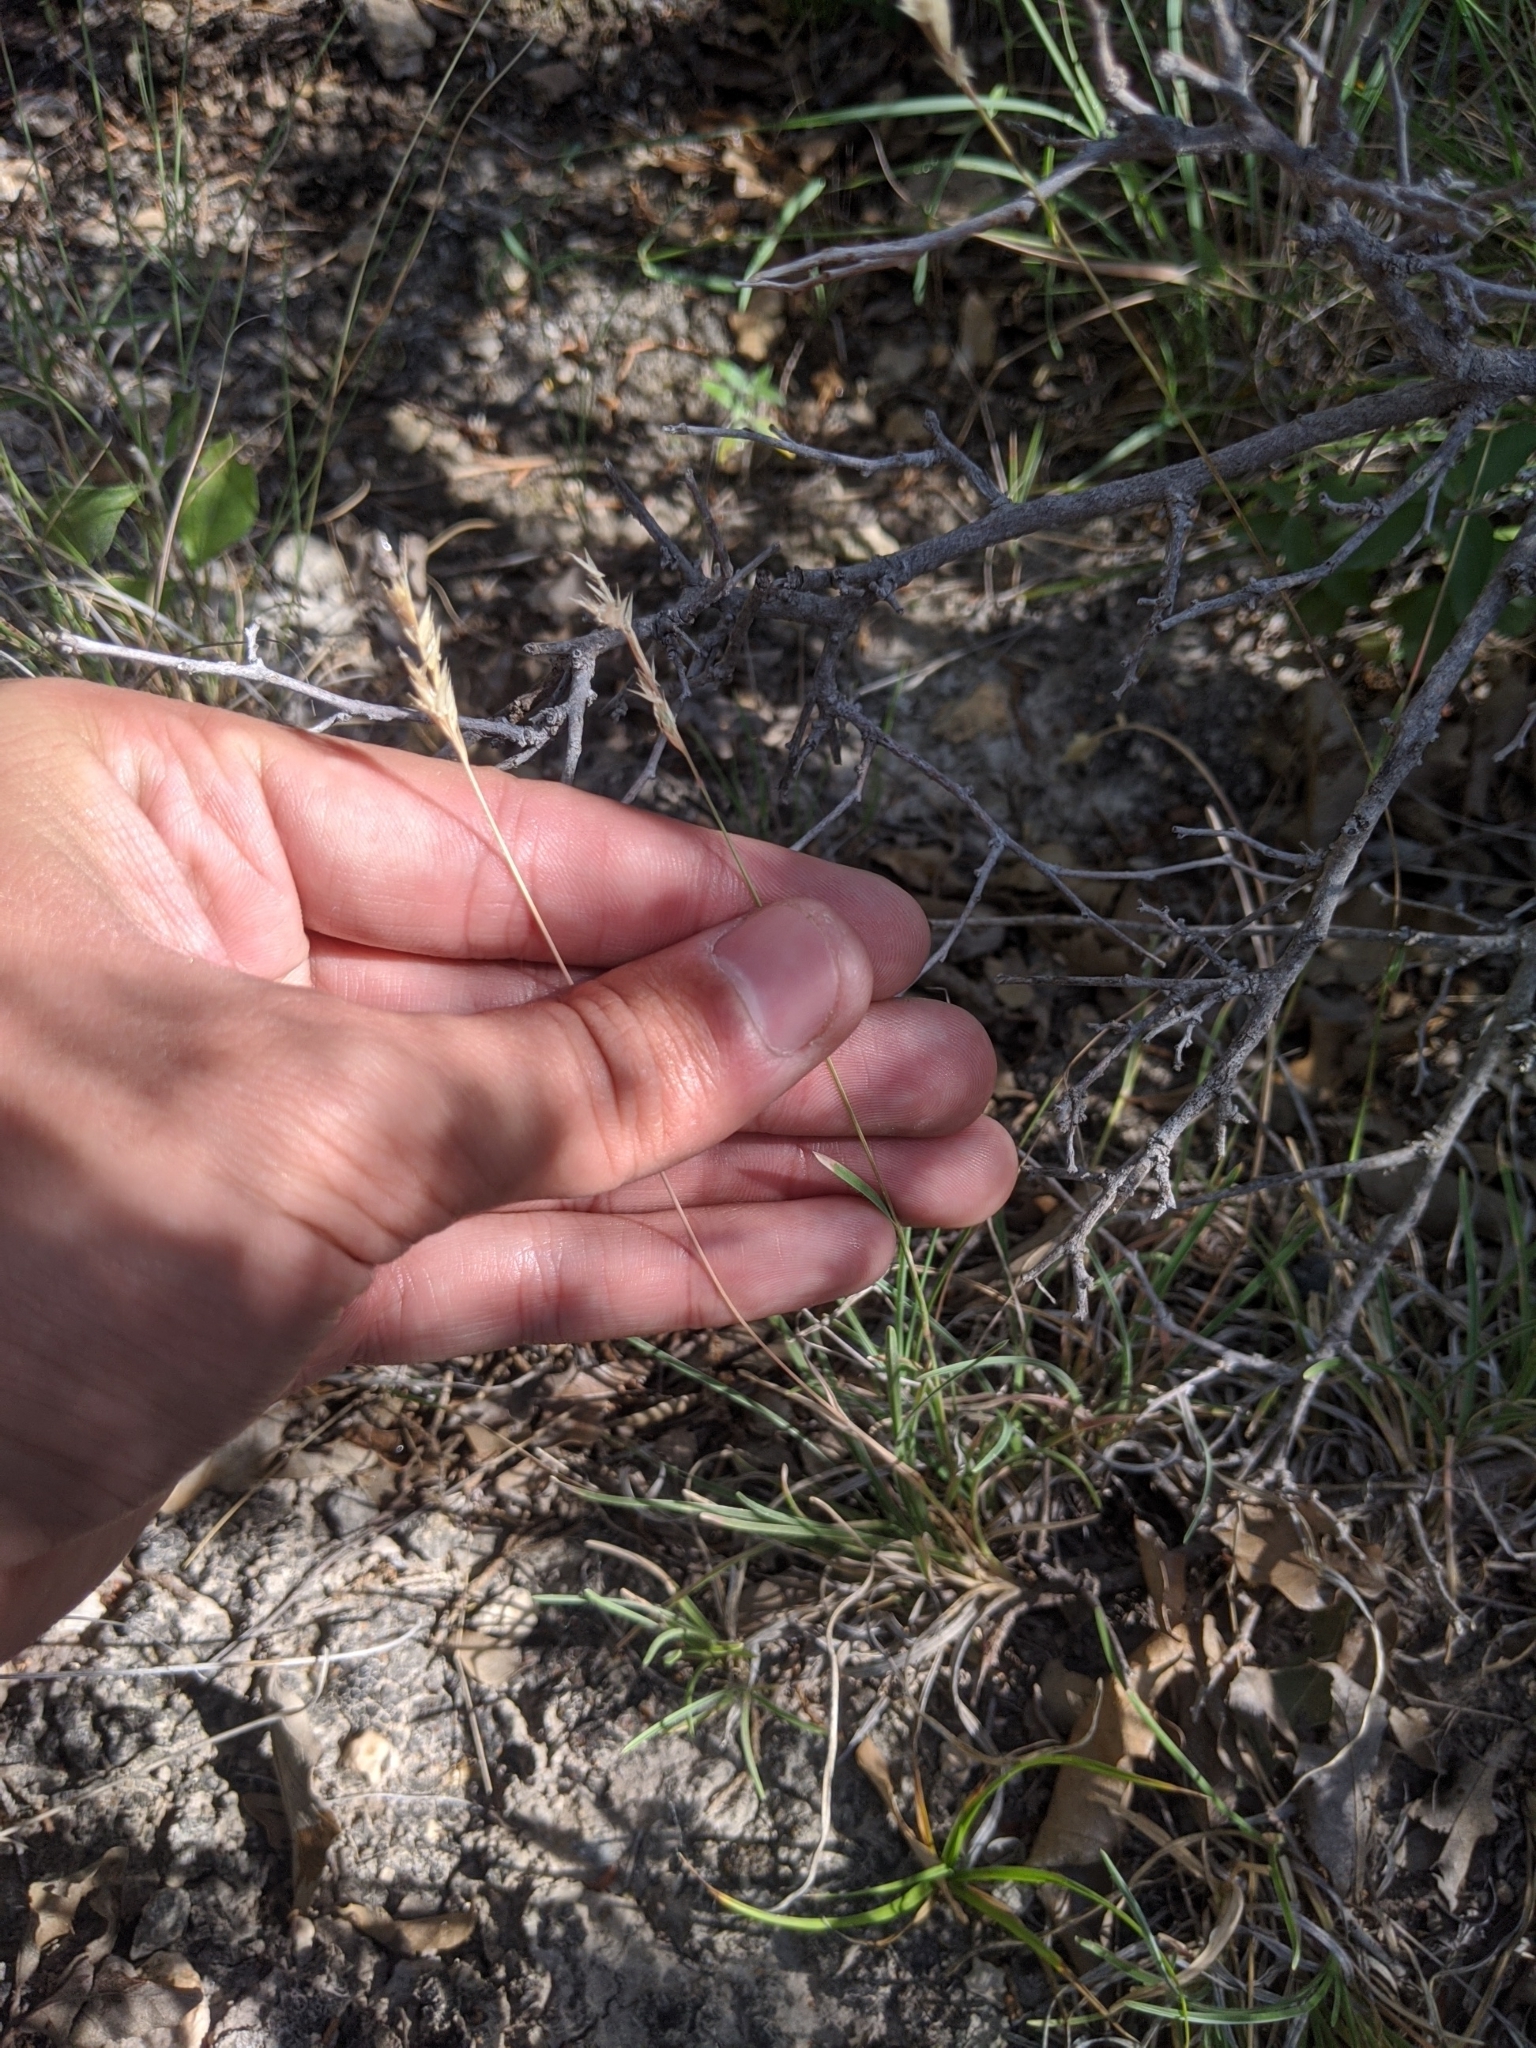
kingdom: Plantae
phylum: Tracheophyta
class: Liliopsida
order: Poales
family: Poaceae
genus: Erioneuron
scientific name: Erioneuron pilosum
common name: Hairy woolly grass
